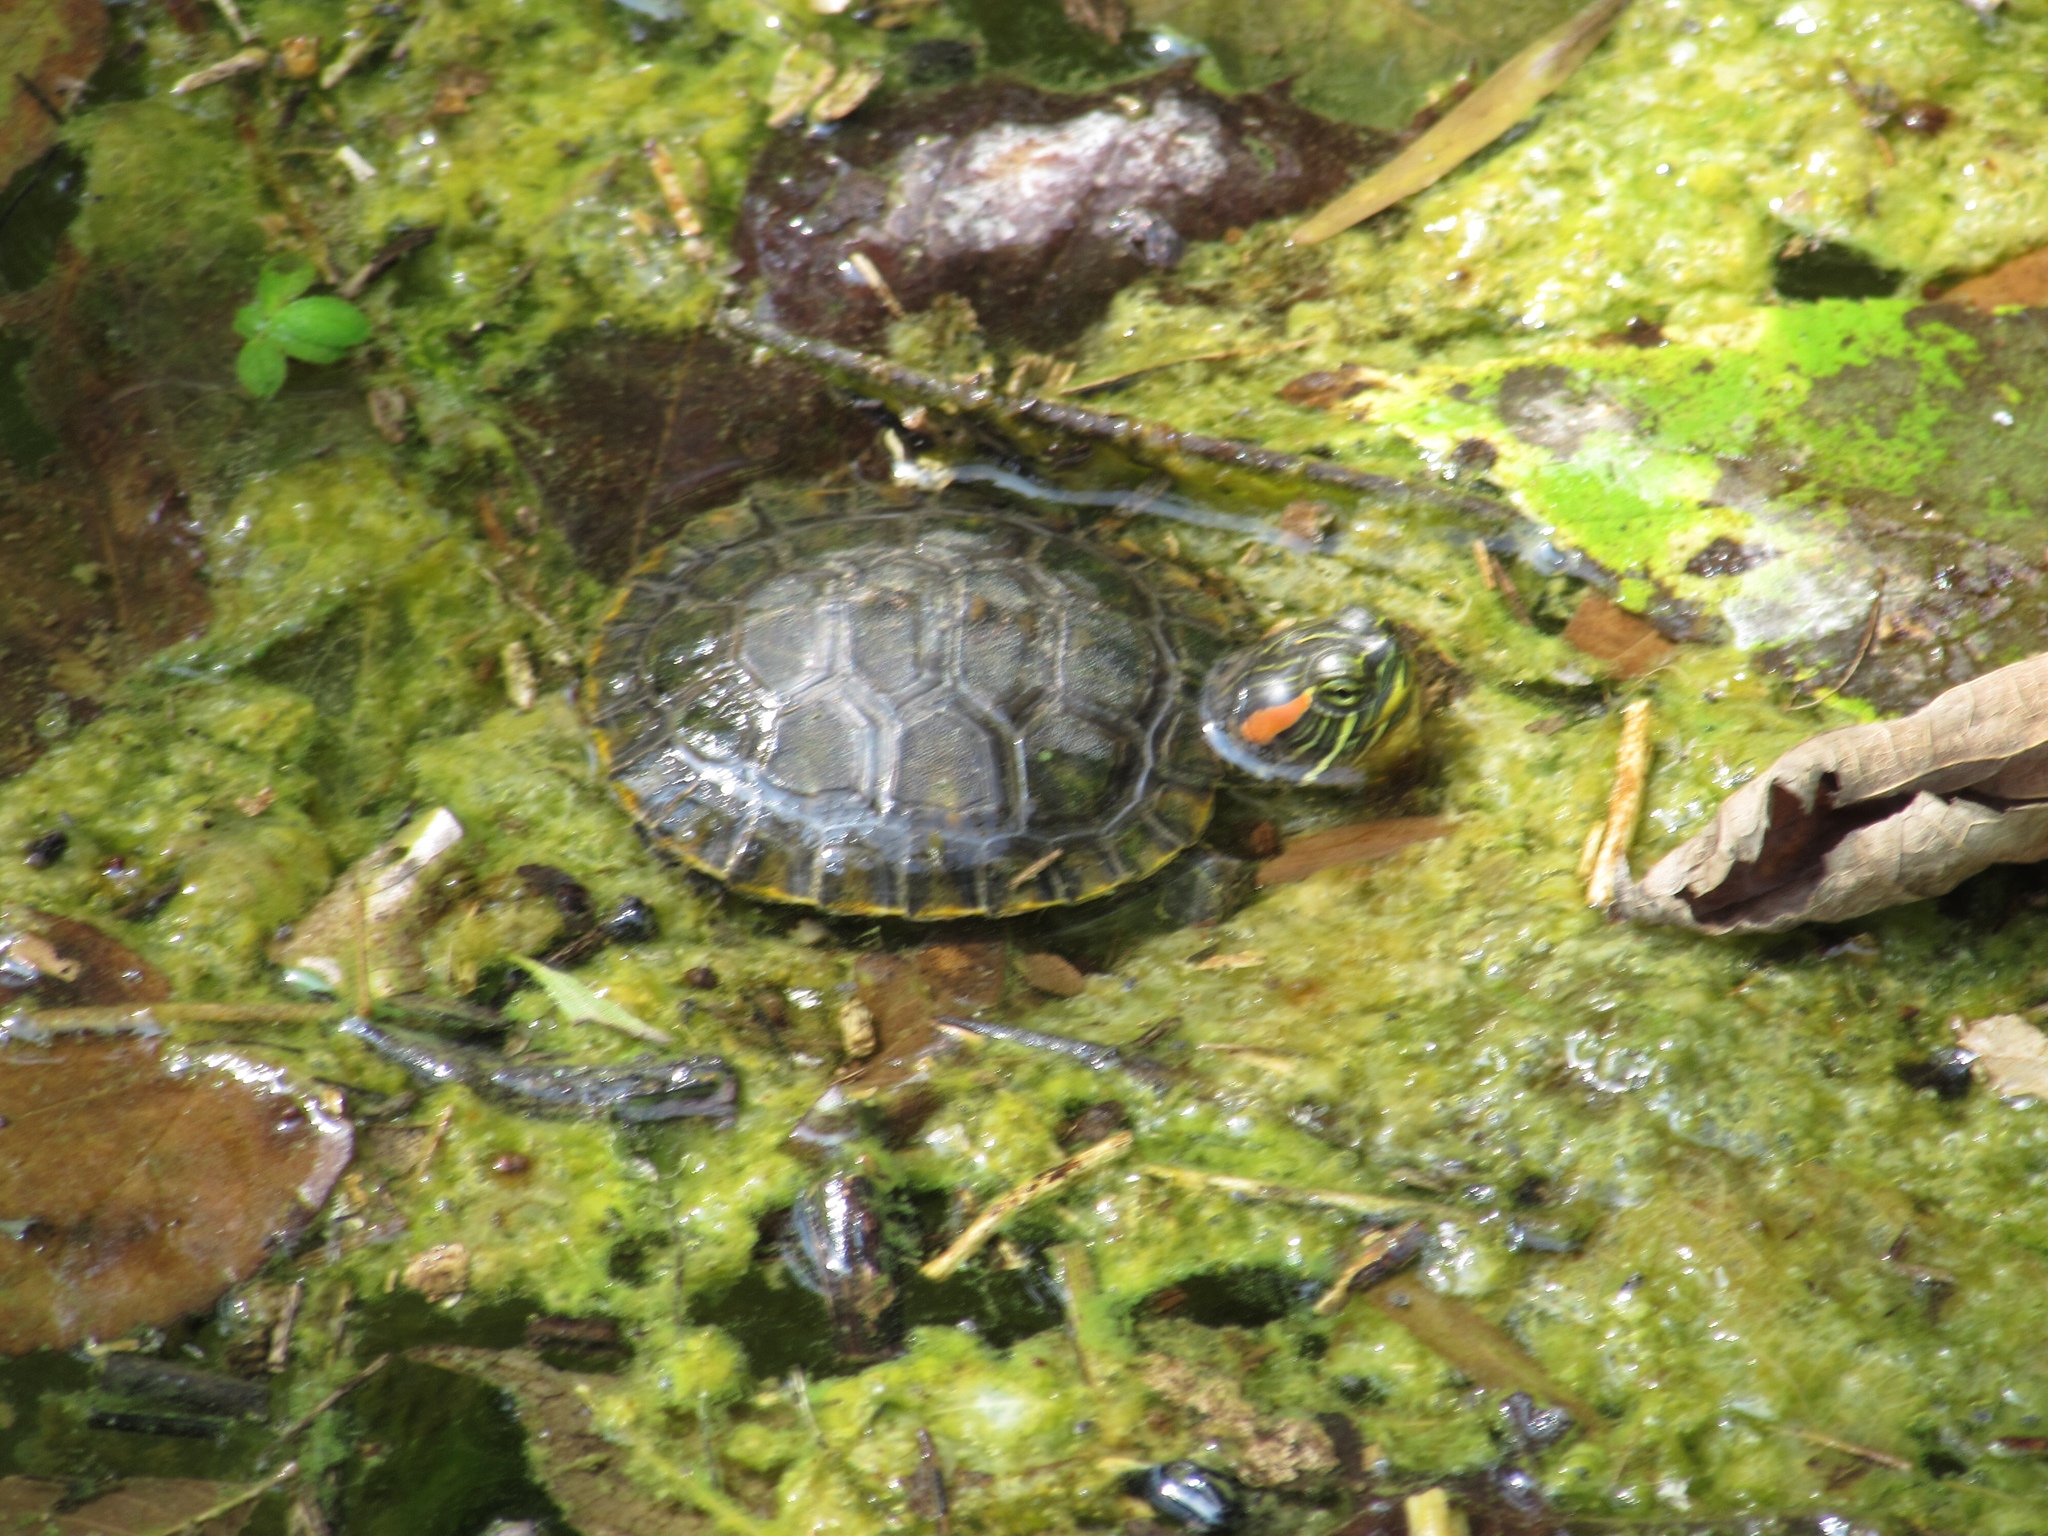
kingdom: Animalia
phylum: Chordata
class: Testudines
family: Emydidae
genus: Trachemys
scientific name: Trachemys scripta
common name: Slider
